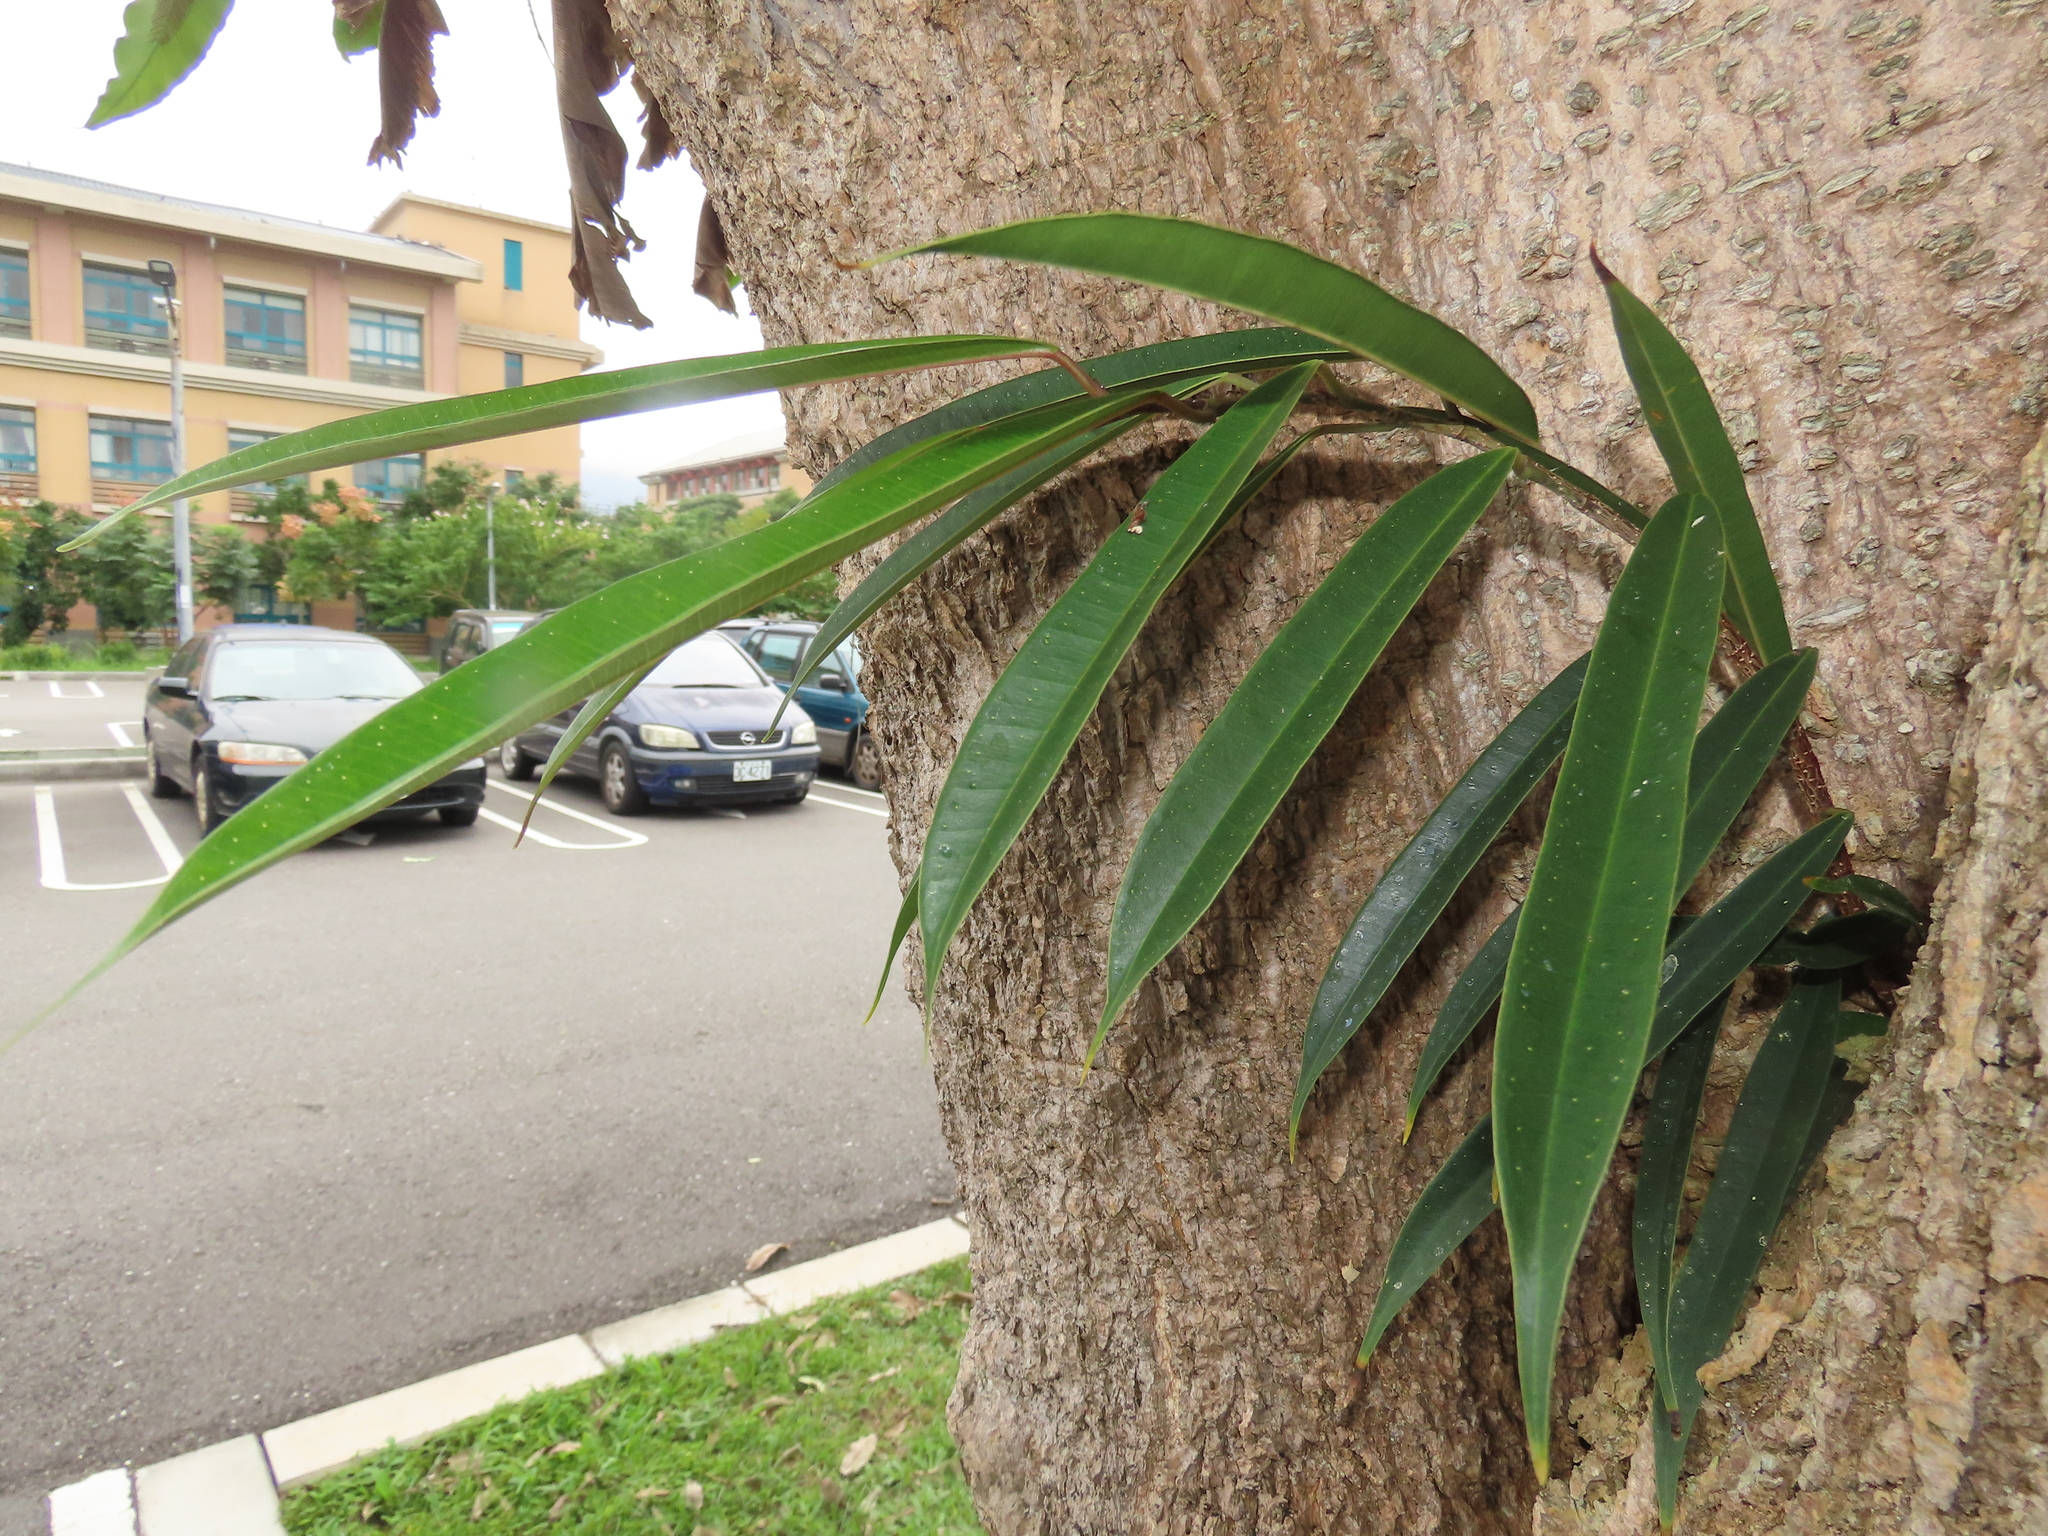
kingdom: Plantae
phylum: Tracheophyta
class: Magnoliopsida
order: Rosales
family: Moraceae
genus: Ficus
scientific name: Ficus maclellandii
